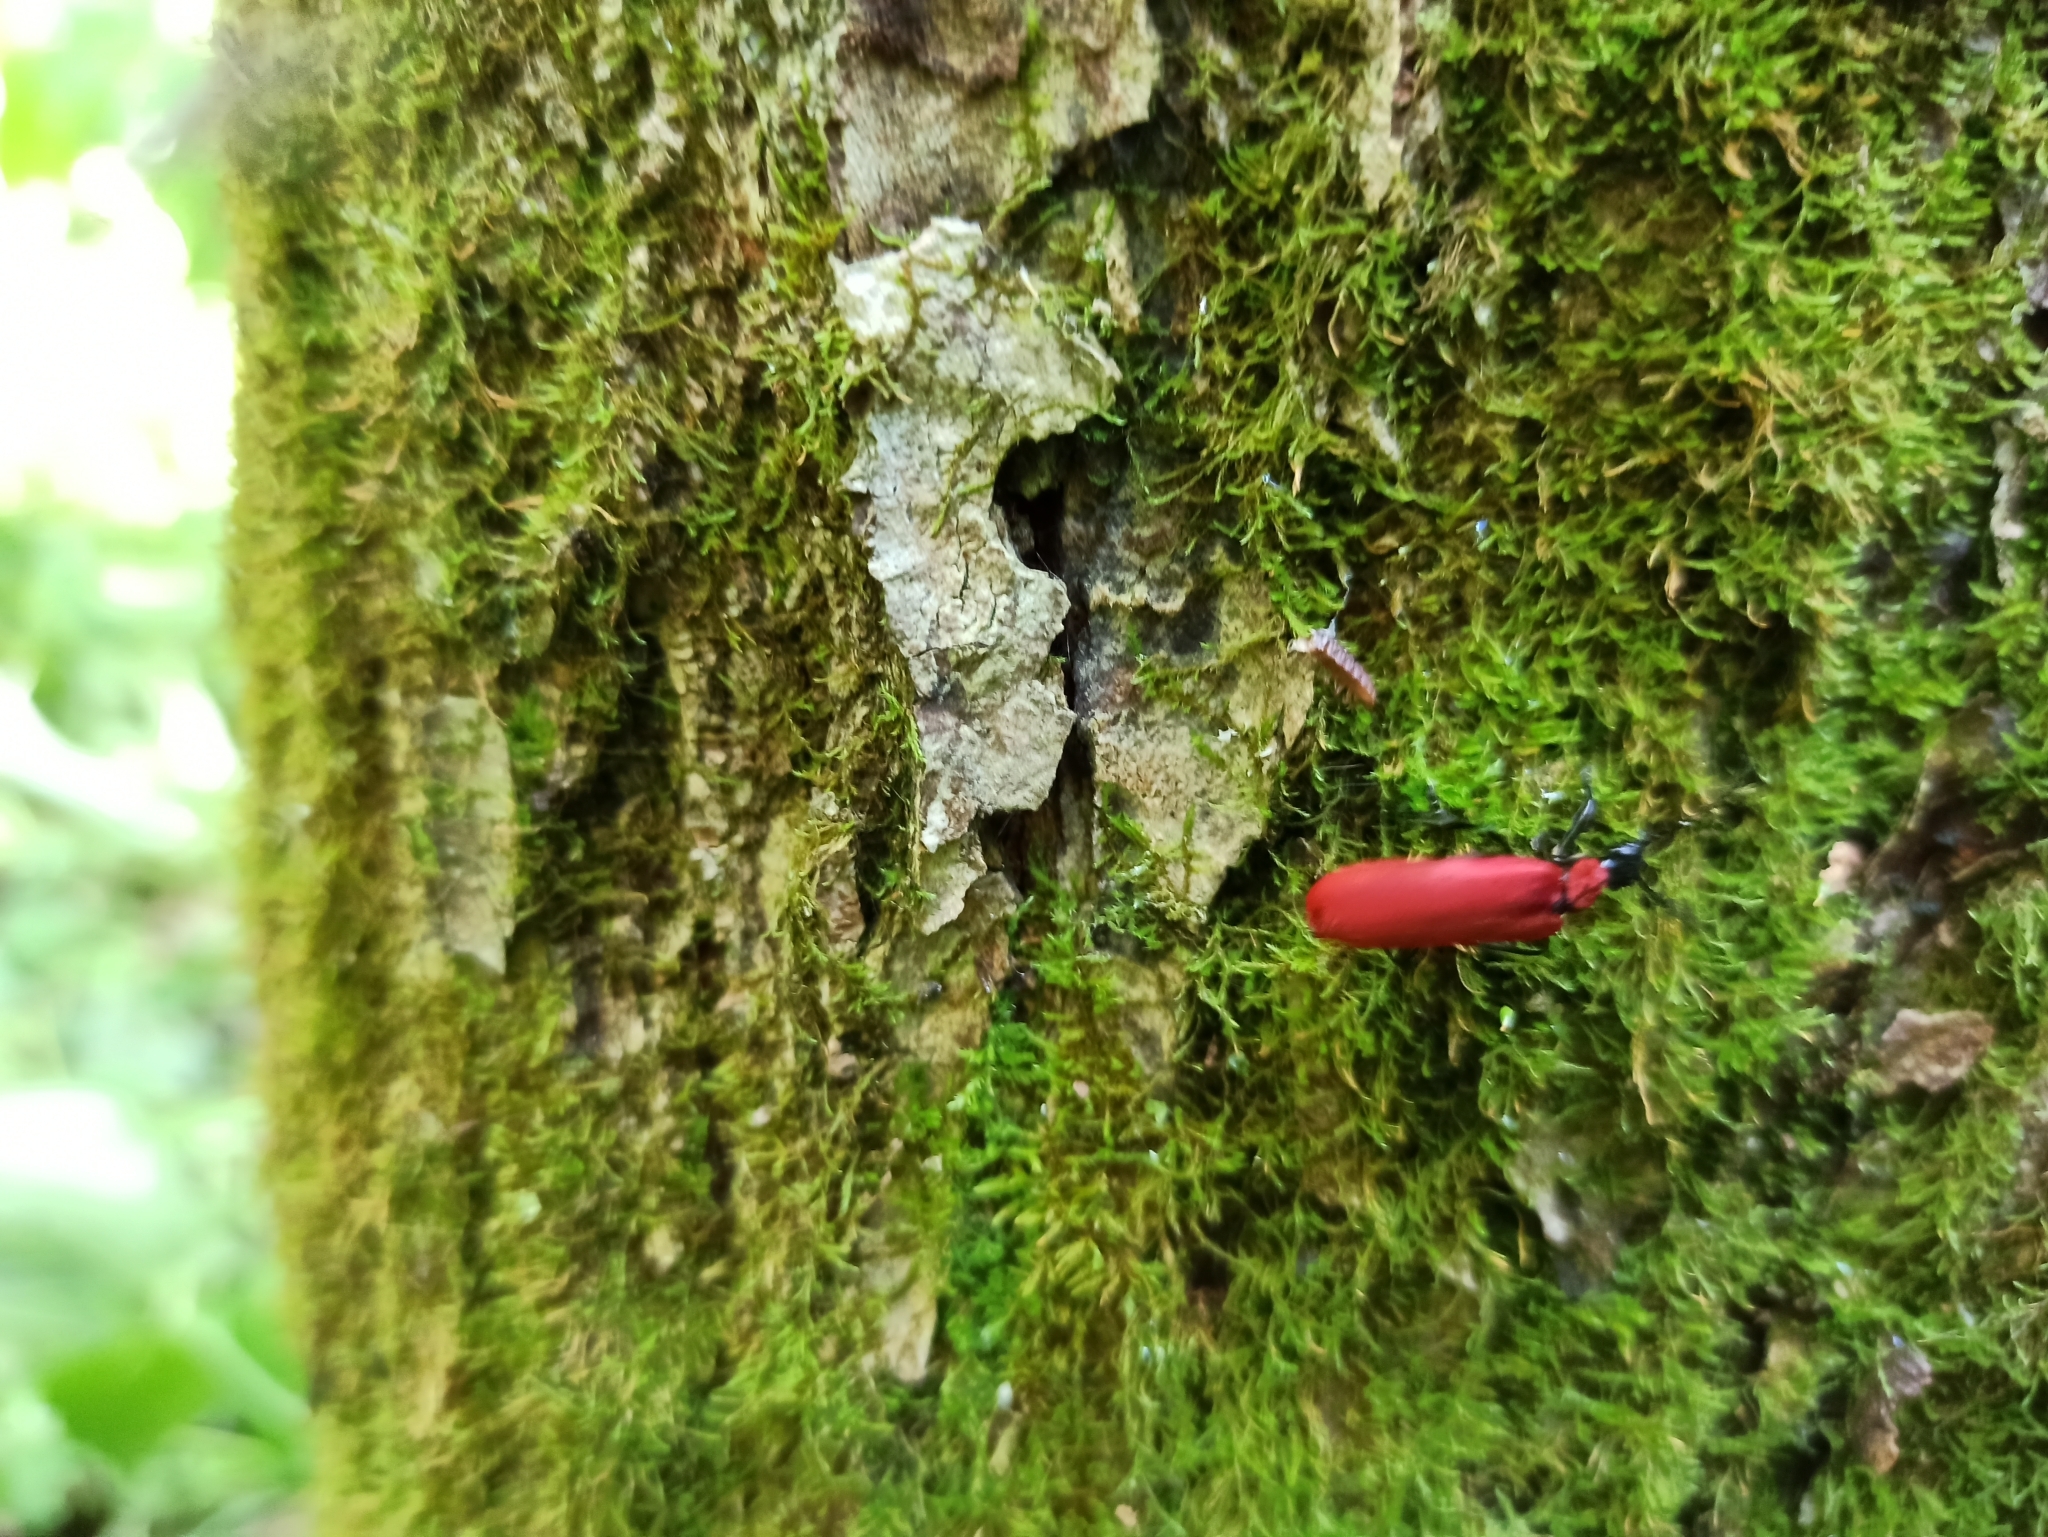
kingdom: Animalia
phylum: Arthropoda
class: Insecta
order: Coleoptera
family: Pyrochroidae
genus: Pyrochroa
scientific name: Pyrochroa coccinea
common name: Black-headed cardinal beetle
